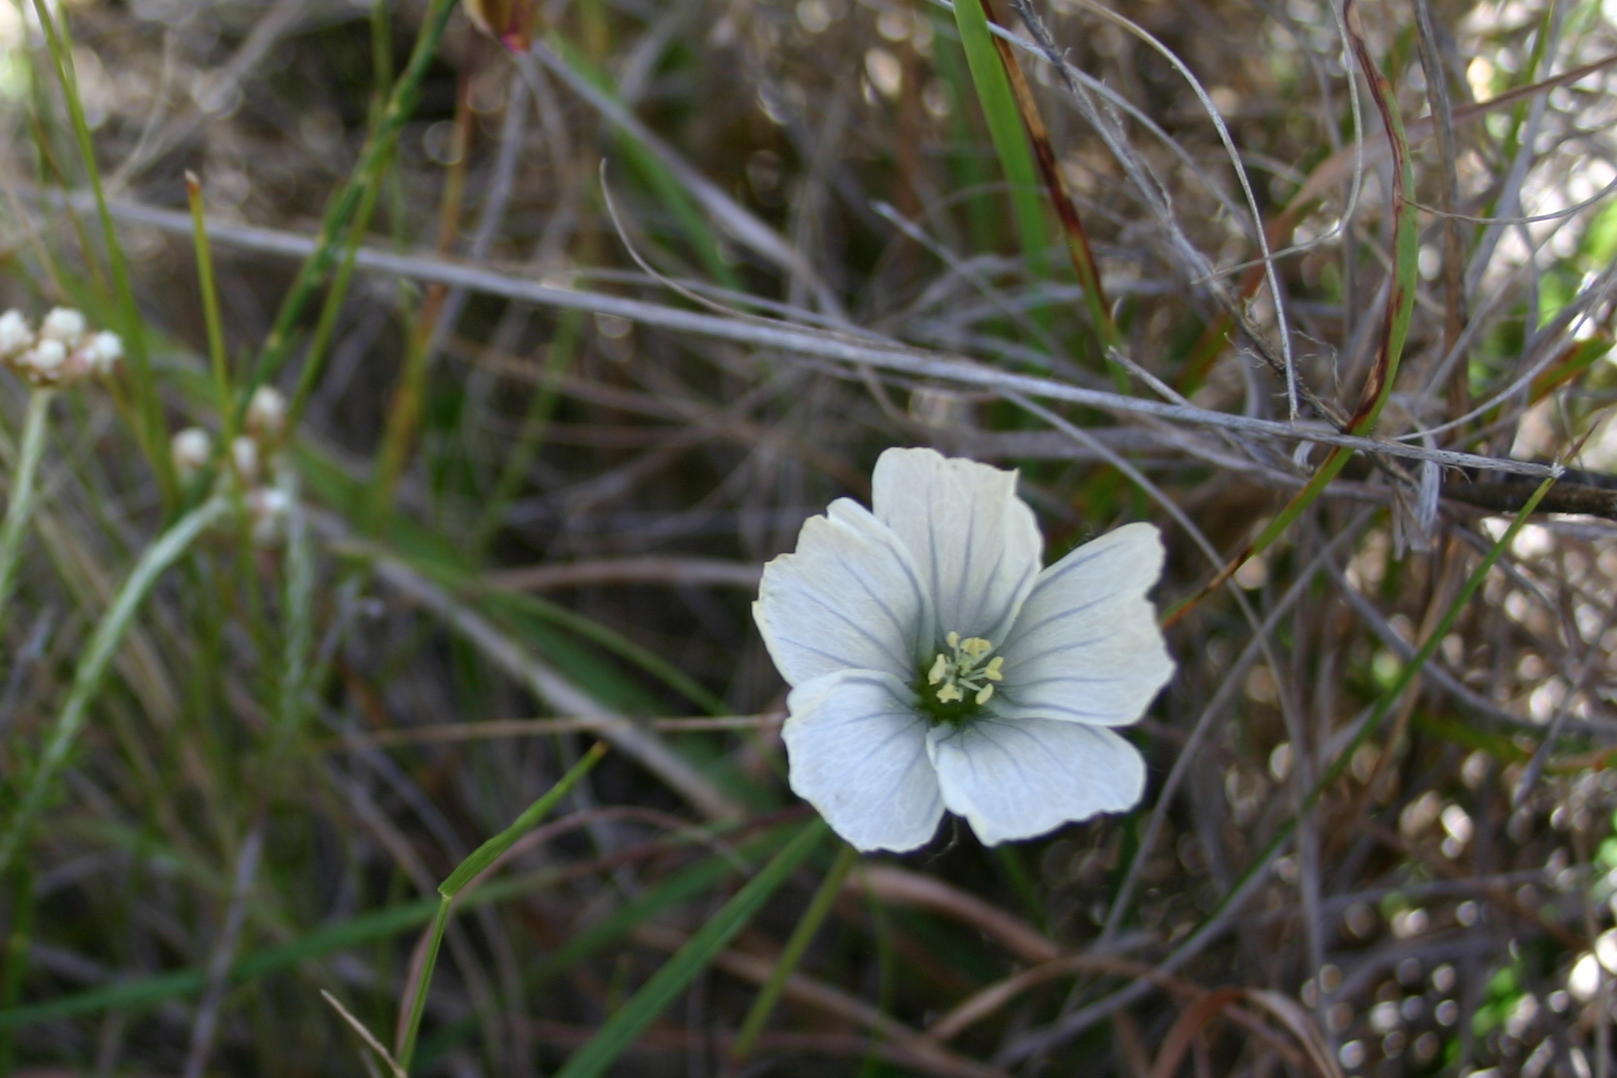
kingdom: Plantae
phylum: Tracheophyta
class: Magnoliopsida
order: Geraniales
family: Geraniaceae
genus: Monsonia
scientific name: Monsonia emarginata
